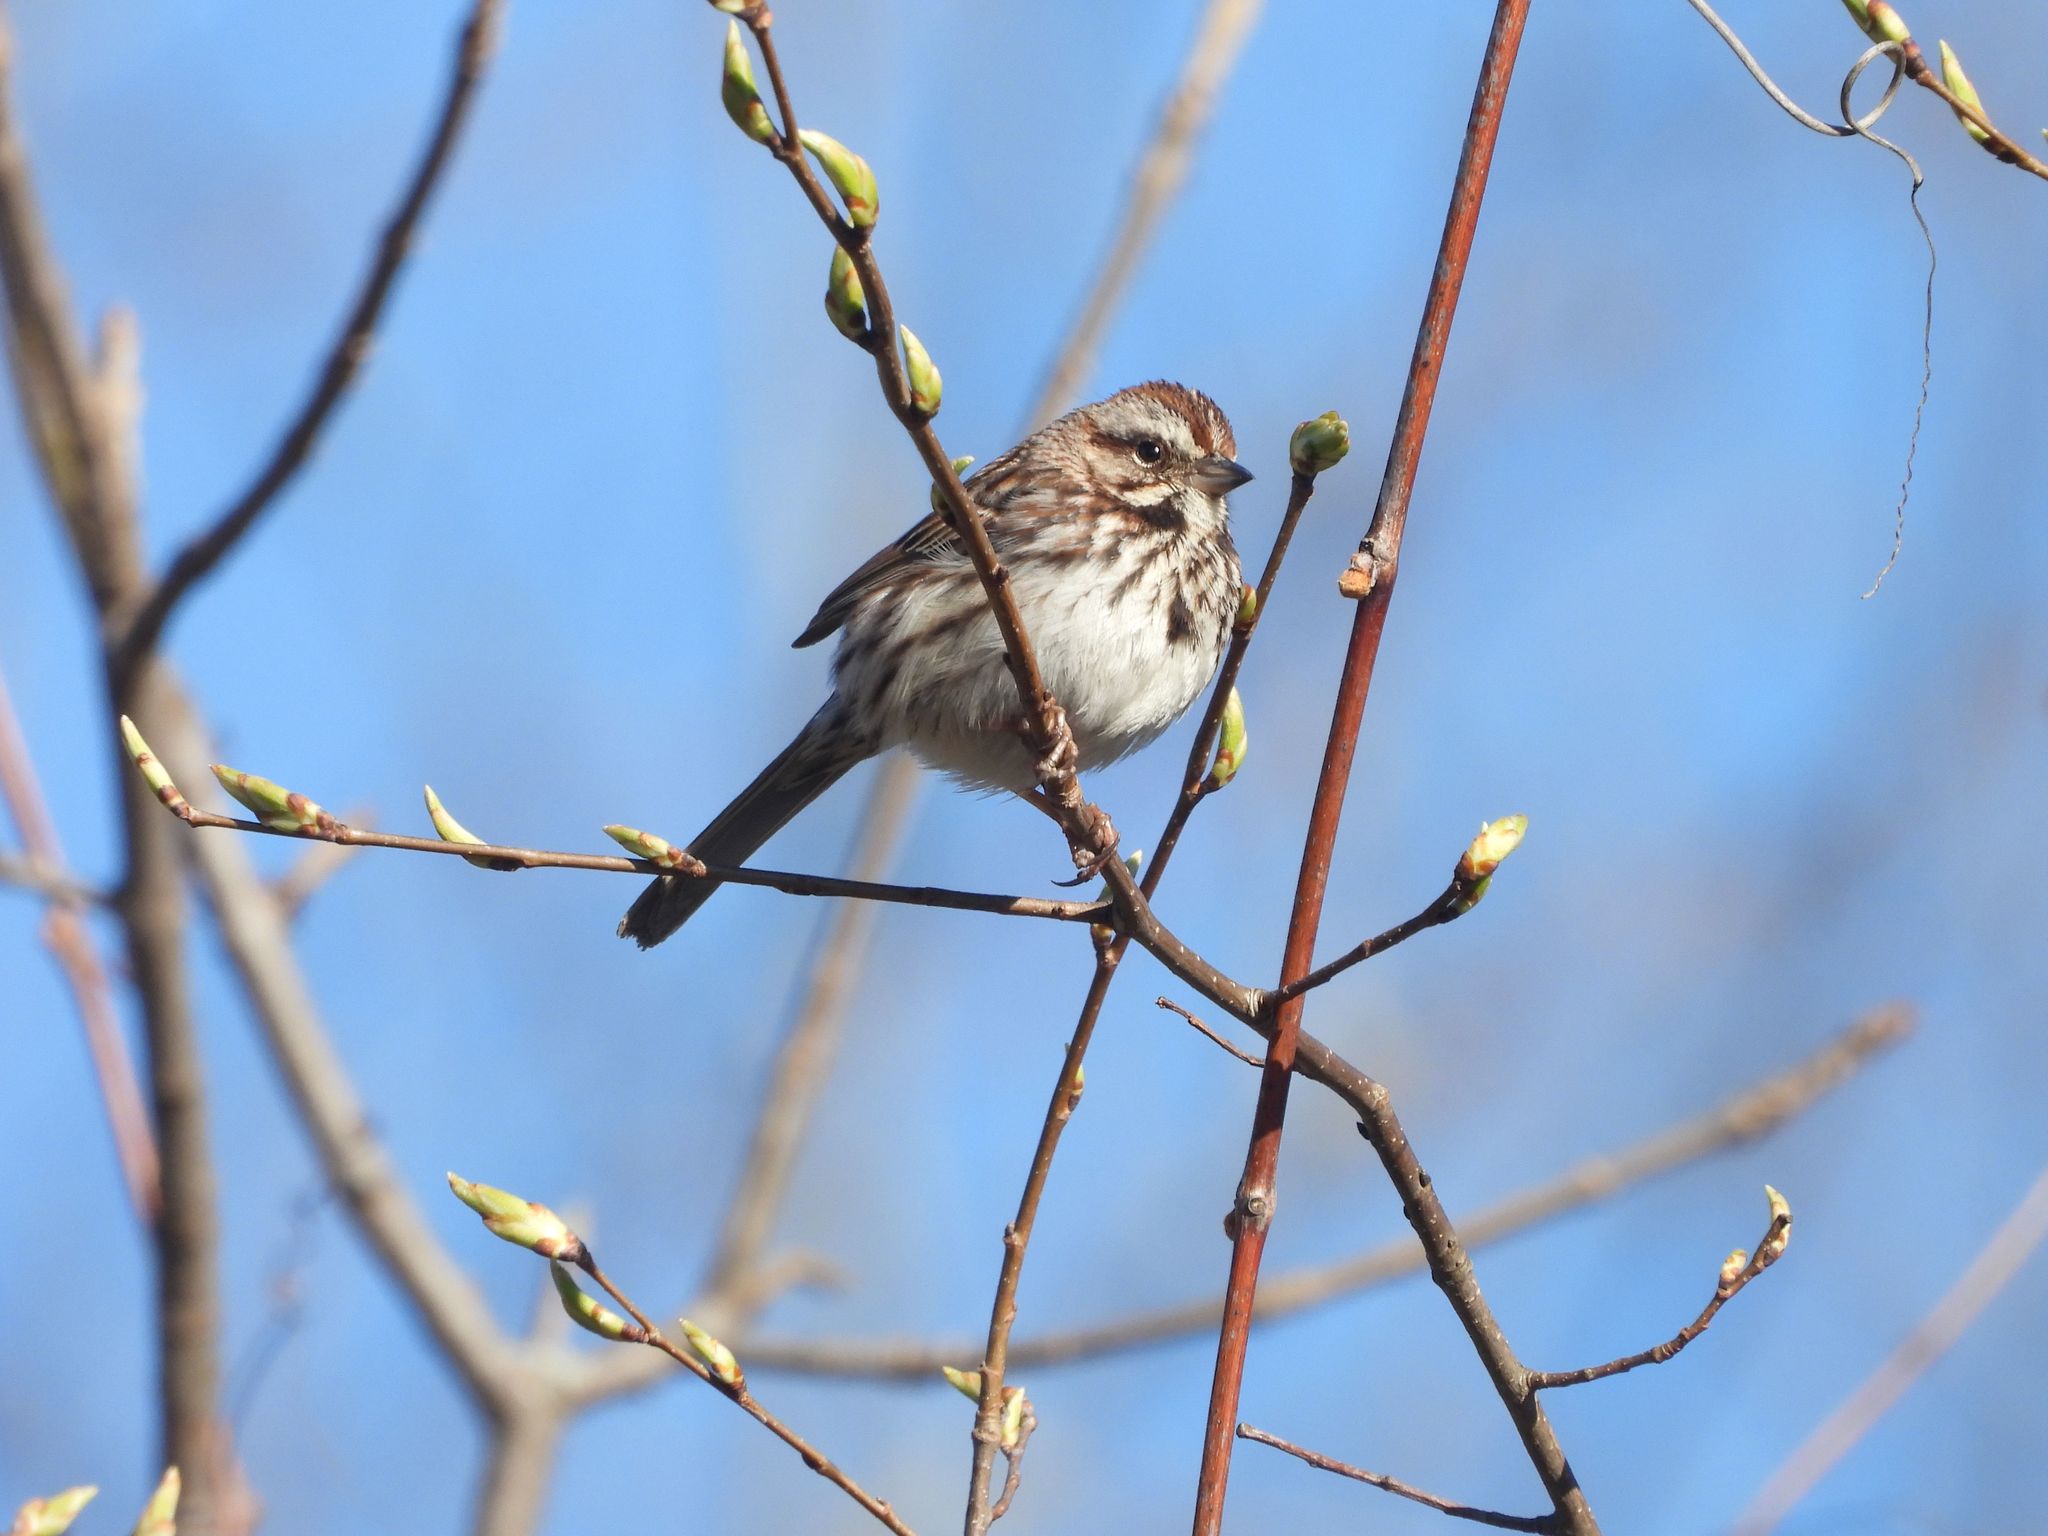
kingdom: Animalia
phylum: Chordata
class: Aves
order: Passeriformes
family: Passerellidae
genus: Melospiza
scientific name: Melospiza melodia
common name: Song sparrow
